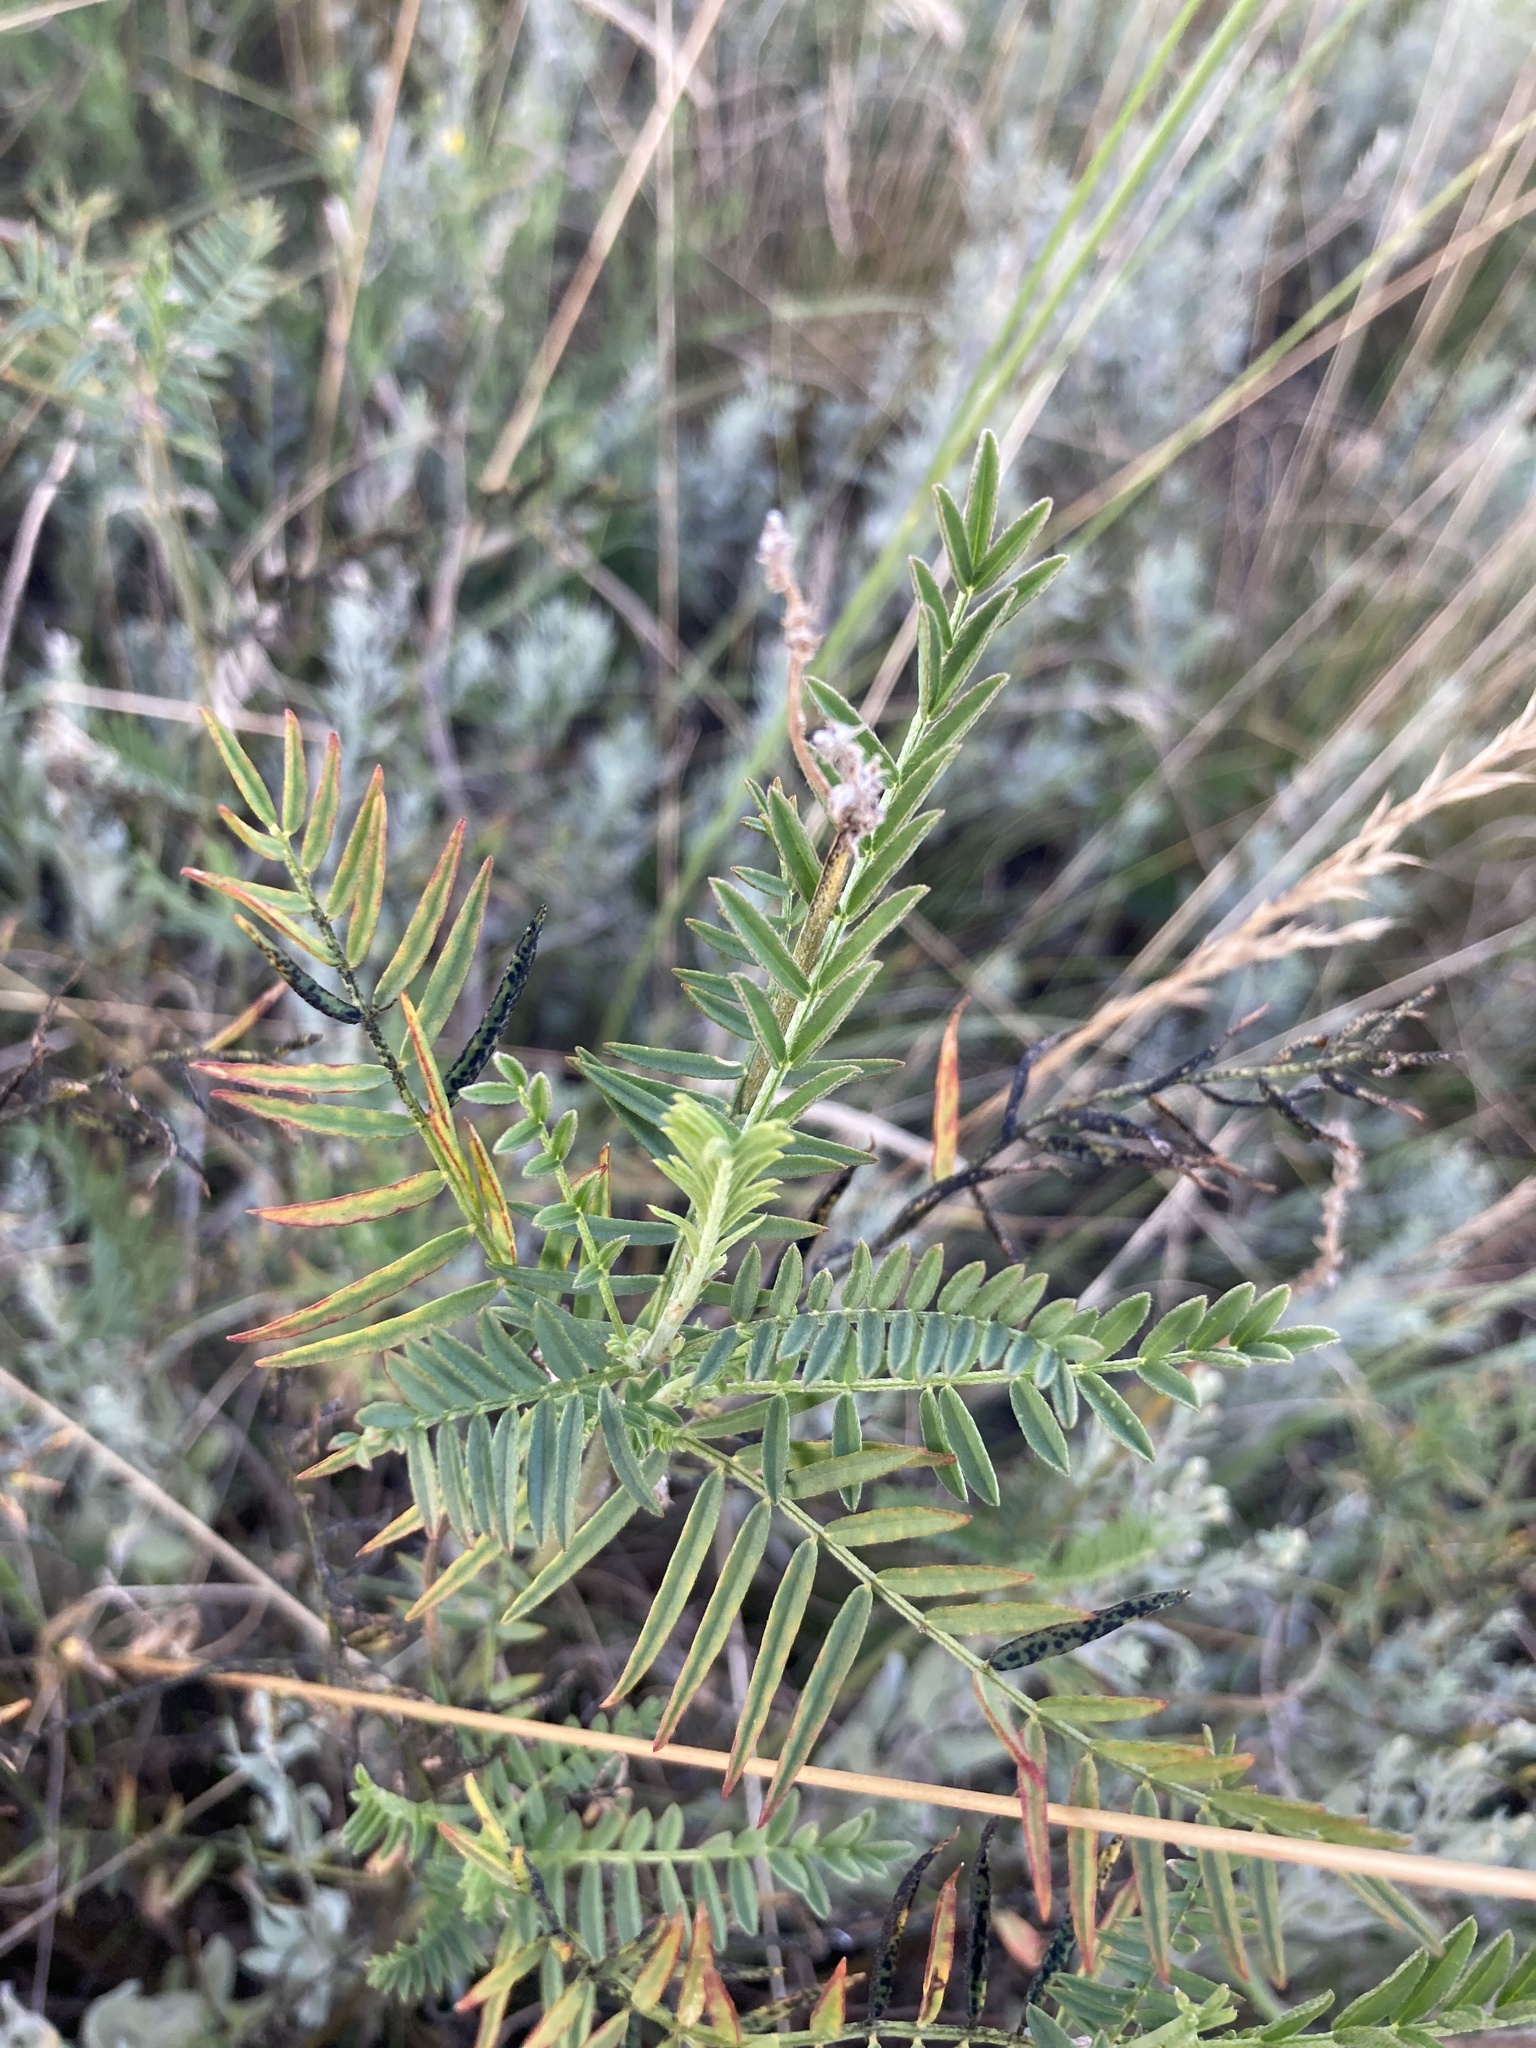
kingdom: Plantae
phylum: Tracheophyta
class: Magnoliopsida
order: Fabales
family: Fabaceae
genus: Astragalus
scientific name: Astragalus onobrychis
